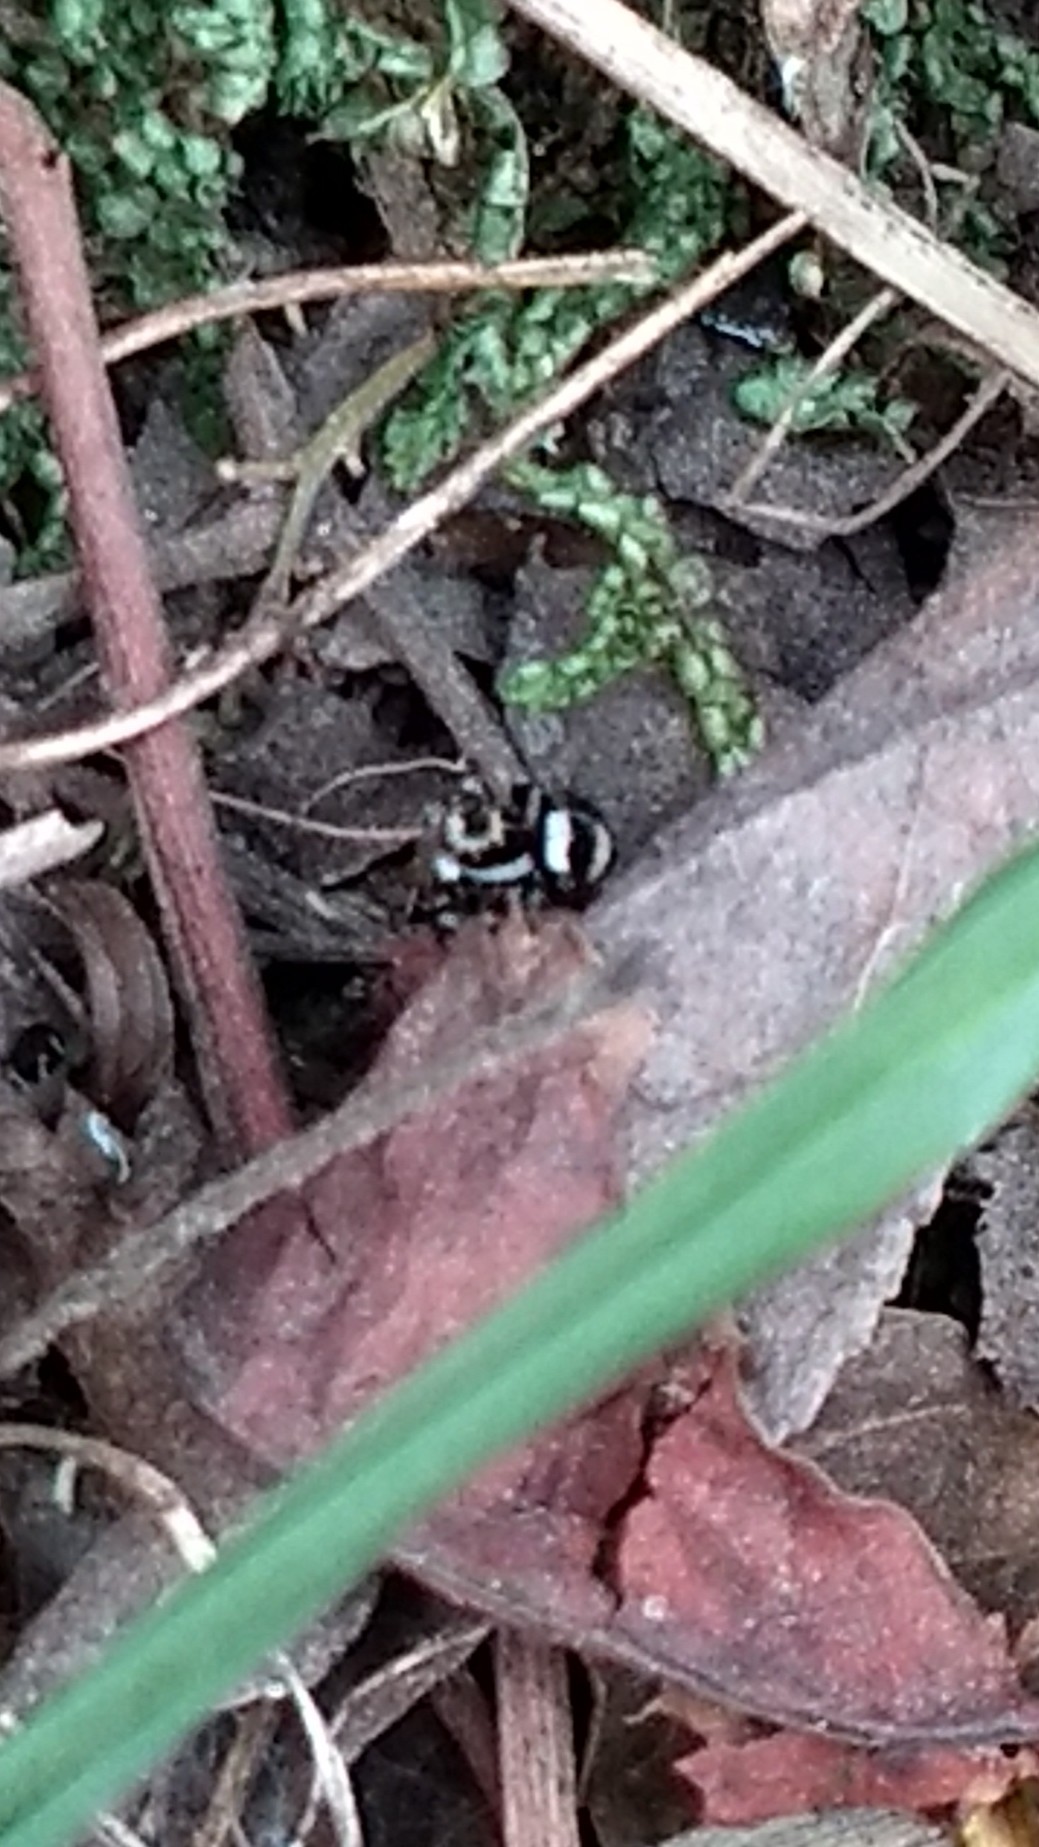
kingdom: Animalia
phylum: Arthropoda
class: Arachnida
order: Araneae
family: Salticidae
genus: Corythalia
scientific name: Corythalia argentinensis
